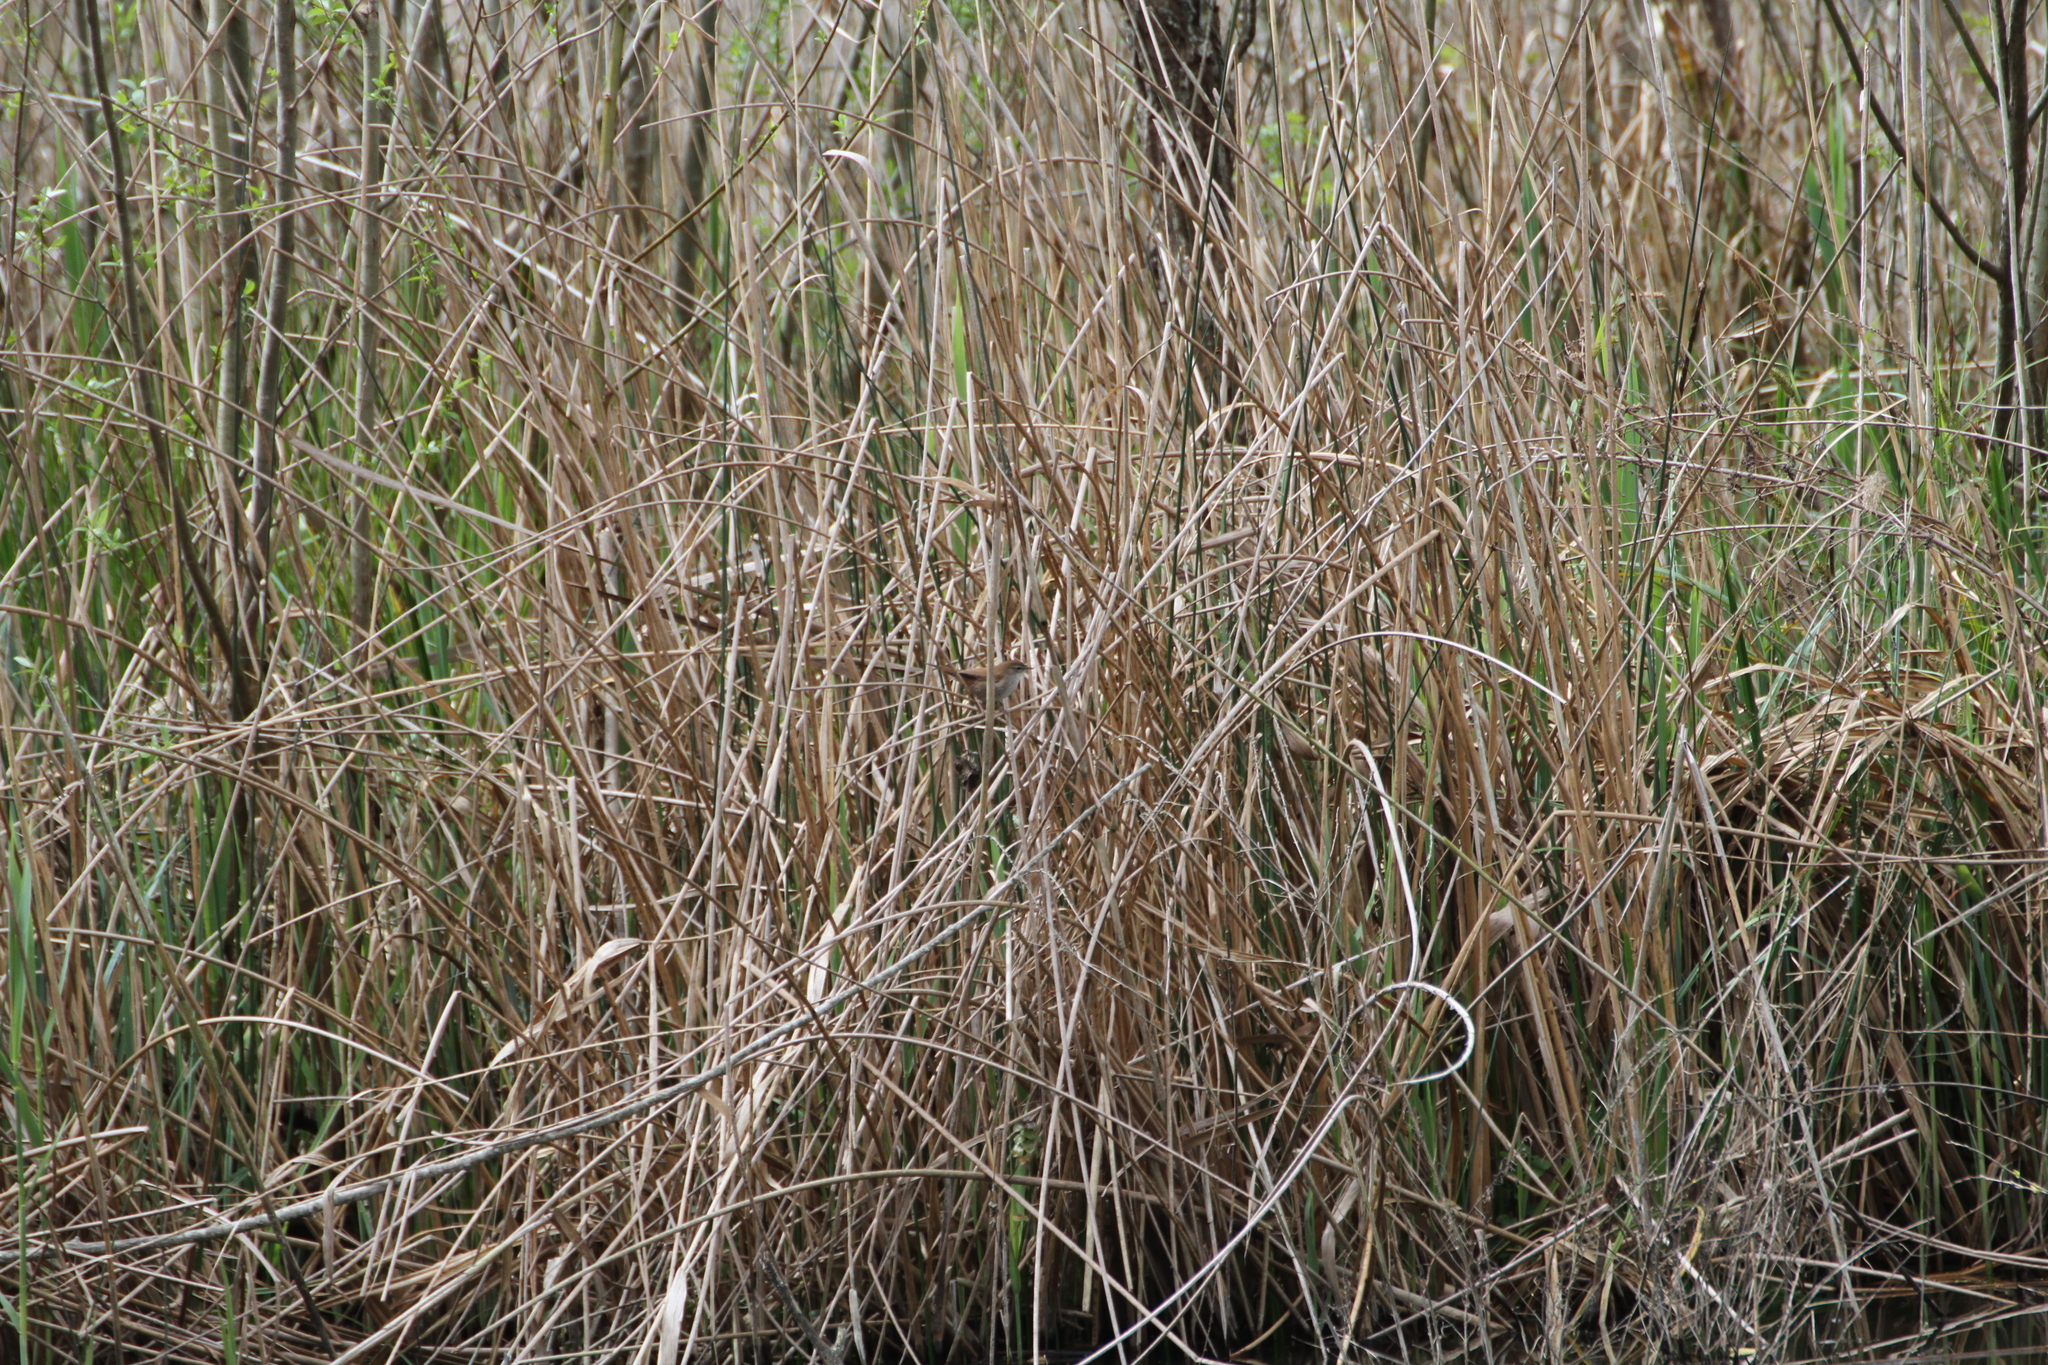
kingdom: Animalia
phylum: Chordata
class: Aves
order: Passeriformes
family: Cettiidae
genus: Cettia
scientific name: Cettia cetti
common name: Cetti's warbler
